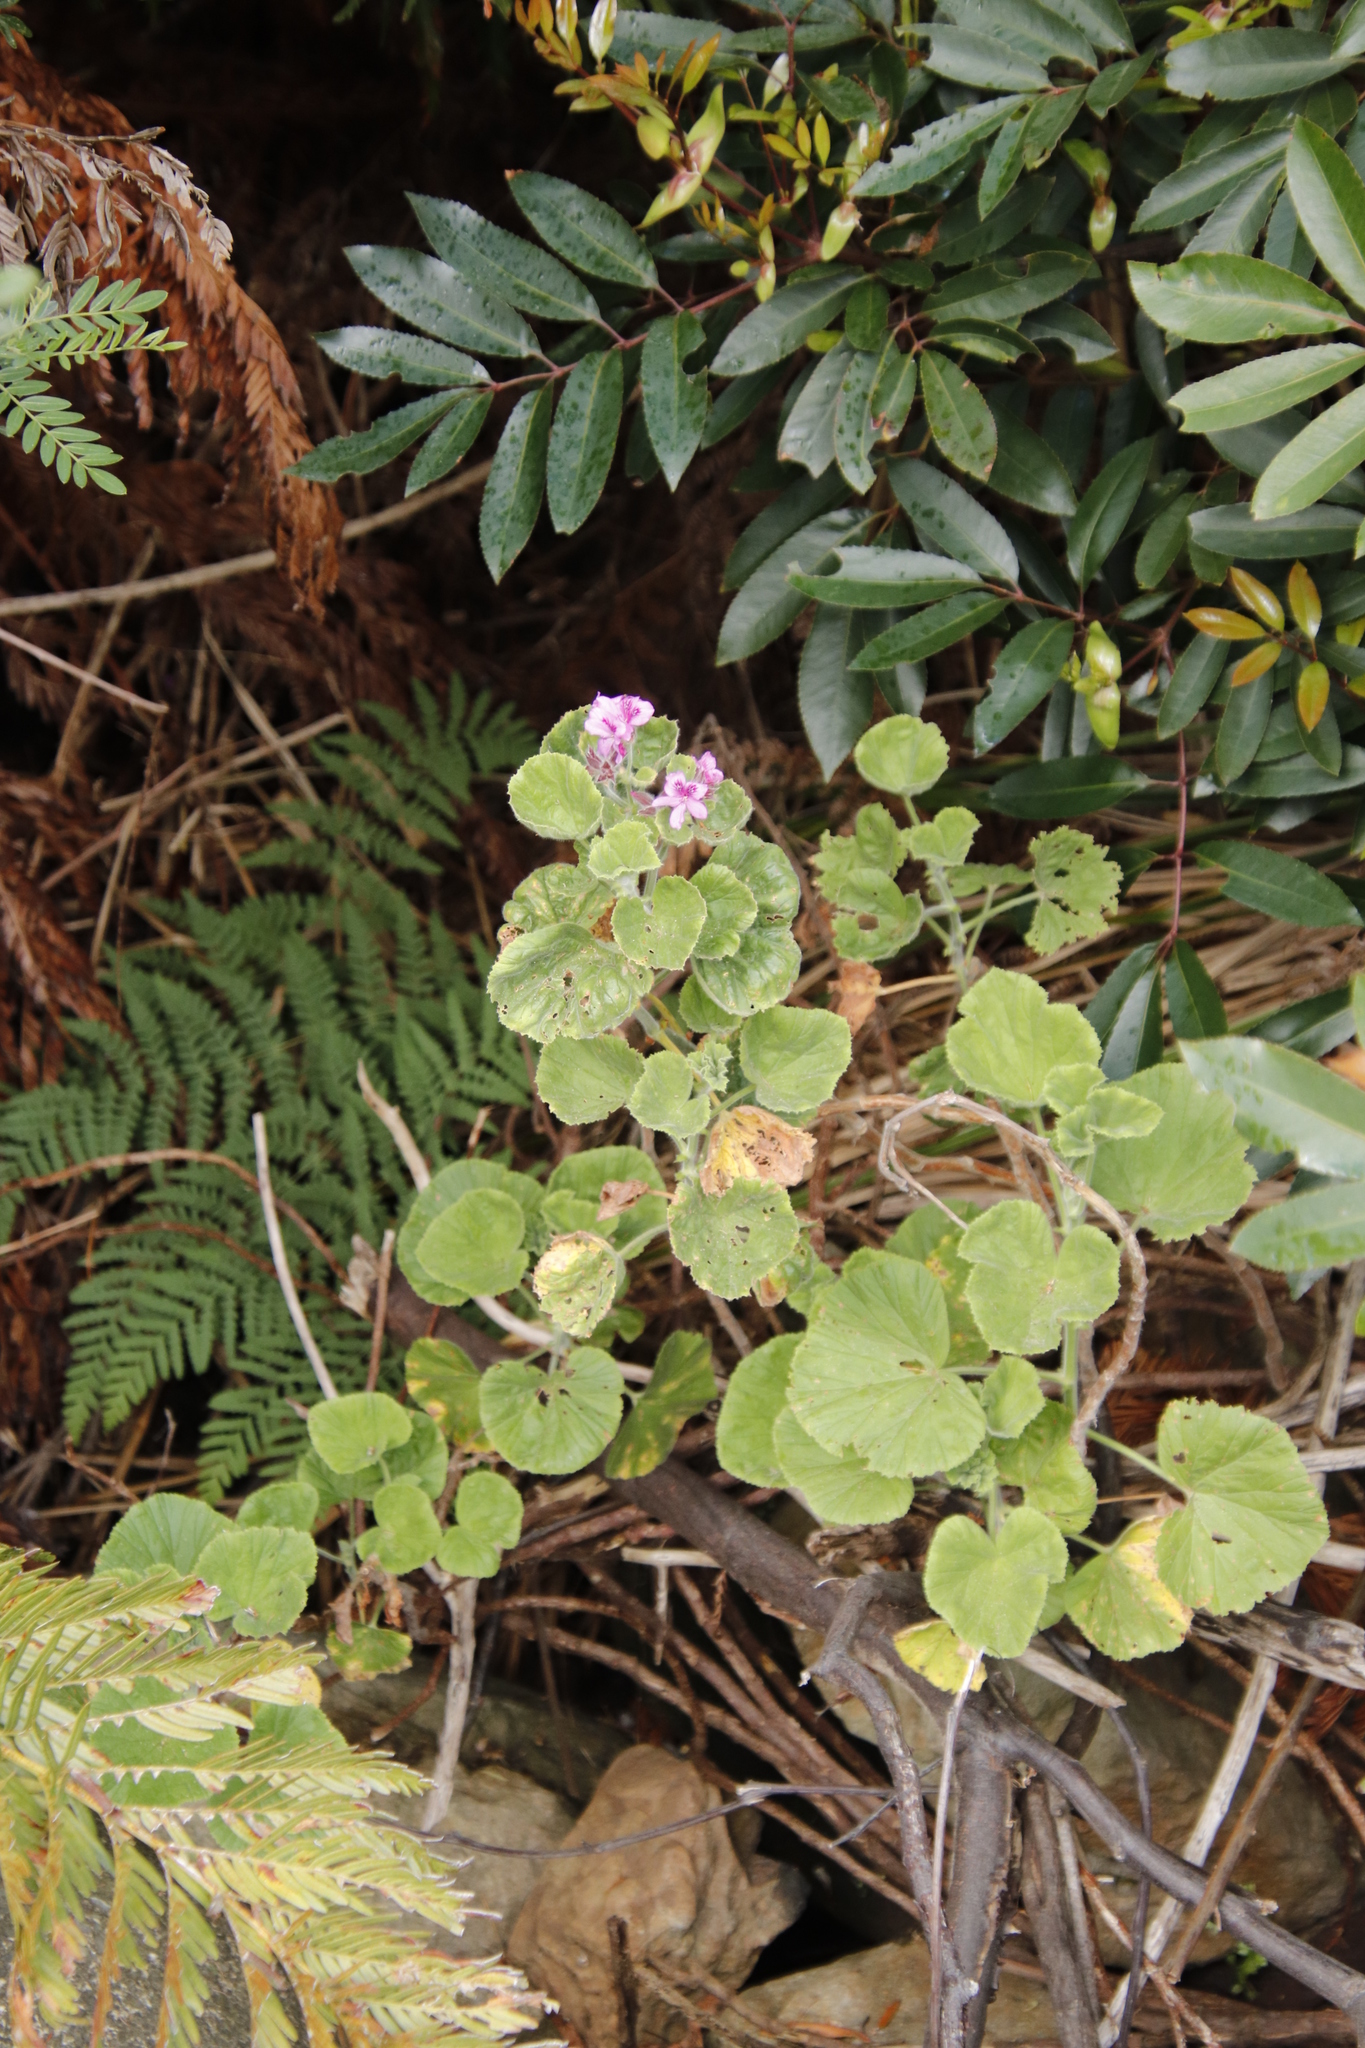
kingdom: Plantae
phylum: Tracheophyta
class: Magnoliopsida
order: Geraniales
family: Geraniaceae
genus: Pelargonium
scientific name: Pelargonium cucullatum
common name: Tree pelargonium
